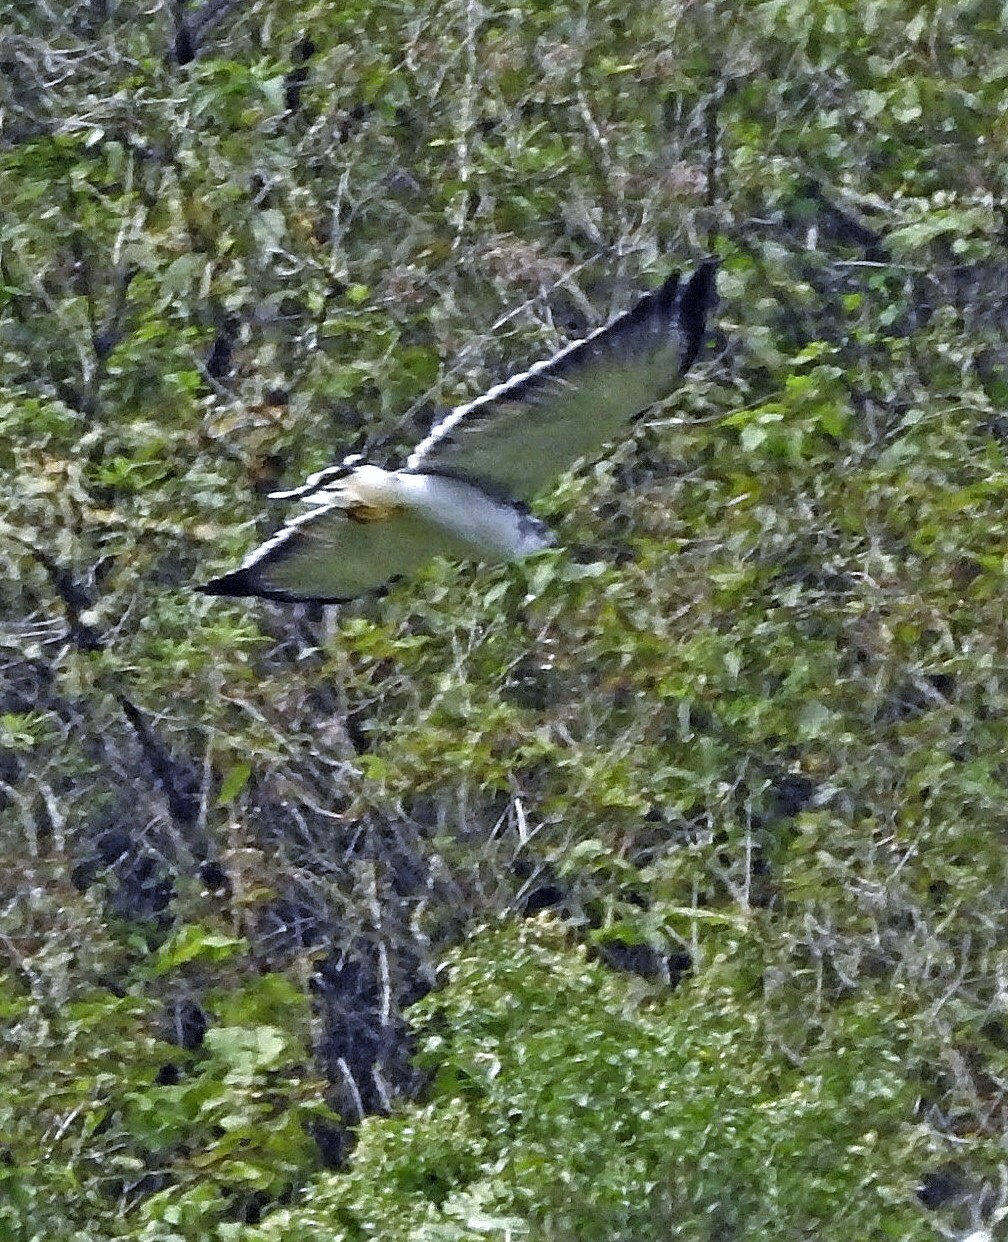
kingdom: Animalia
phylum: Chordata
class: Aves
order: Accipitriformes
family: Accipitridae
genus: Buteo
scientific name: Buteo polyosoma
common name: Variable hawk
